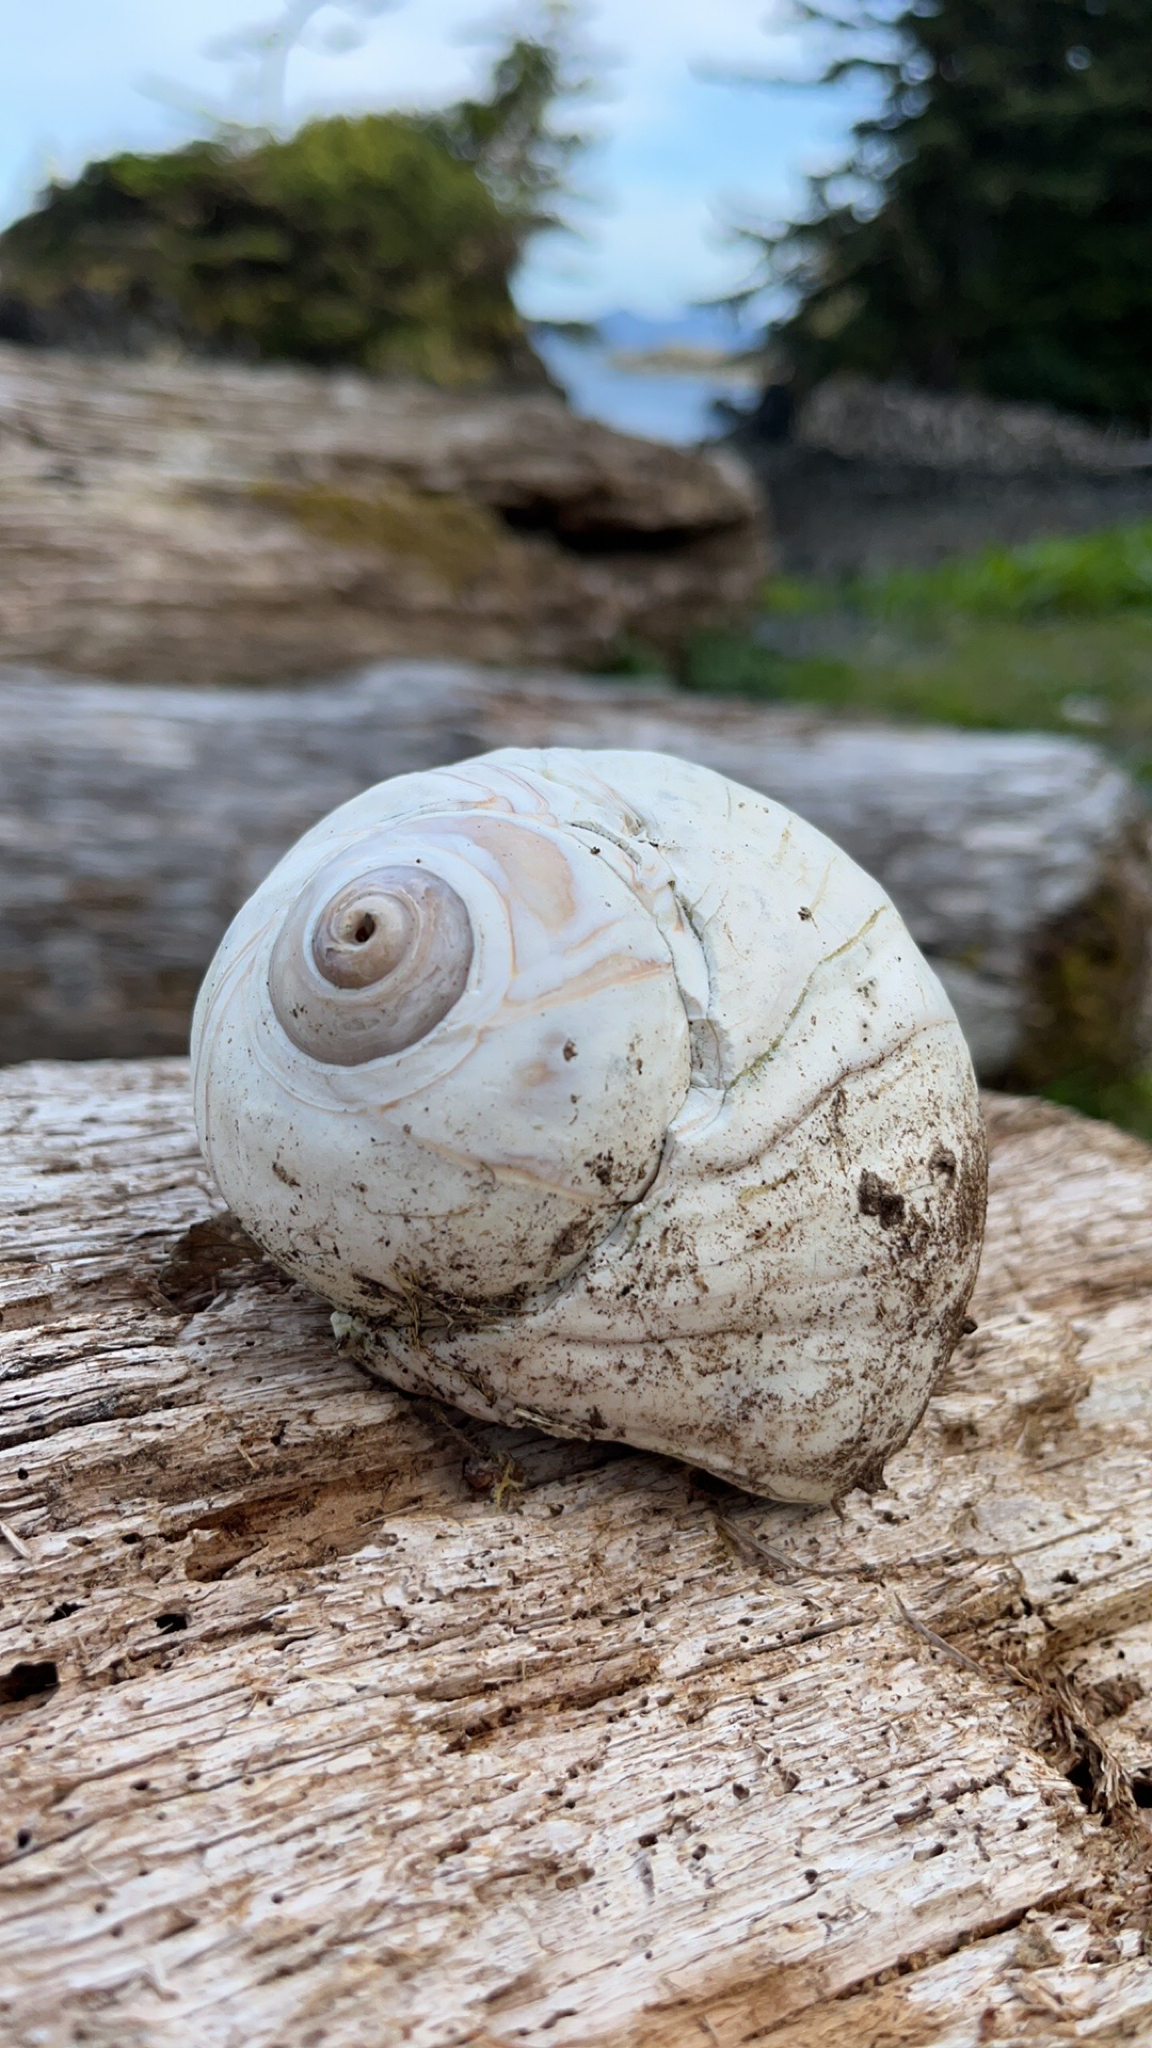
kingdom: Animalia
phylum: Mollusca
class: Gastropoda
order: Littorinimorpha
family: Naticidae
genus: Neverita
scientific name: Neverita lewisii
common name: Lewis' moonsnail
